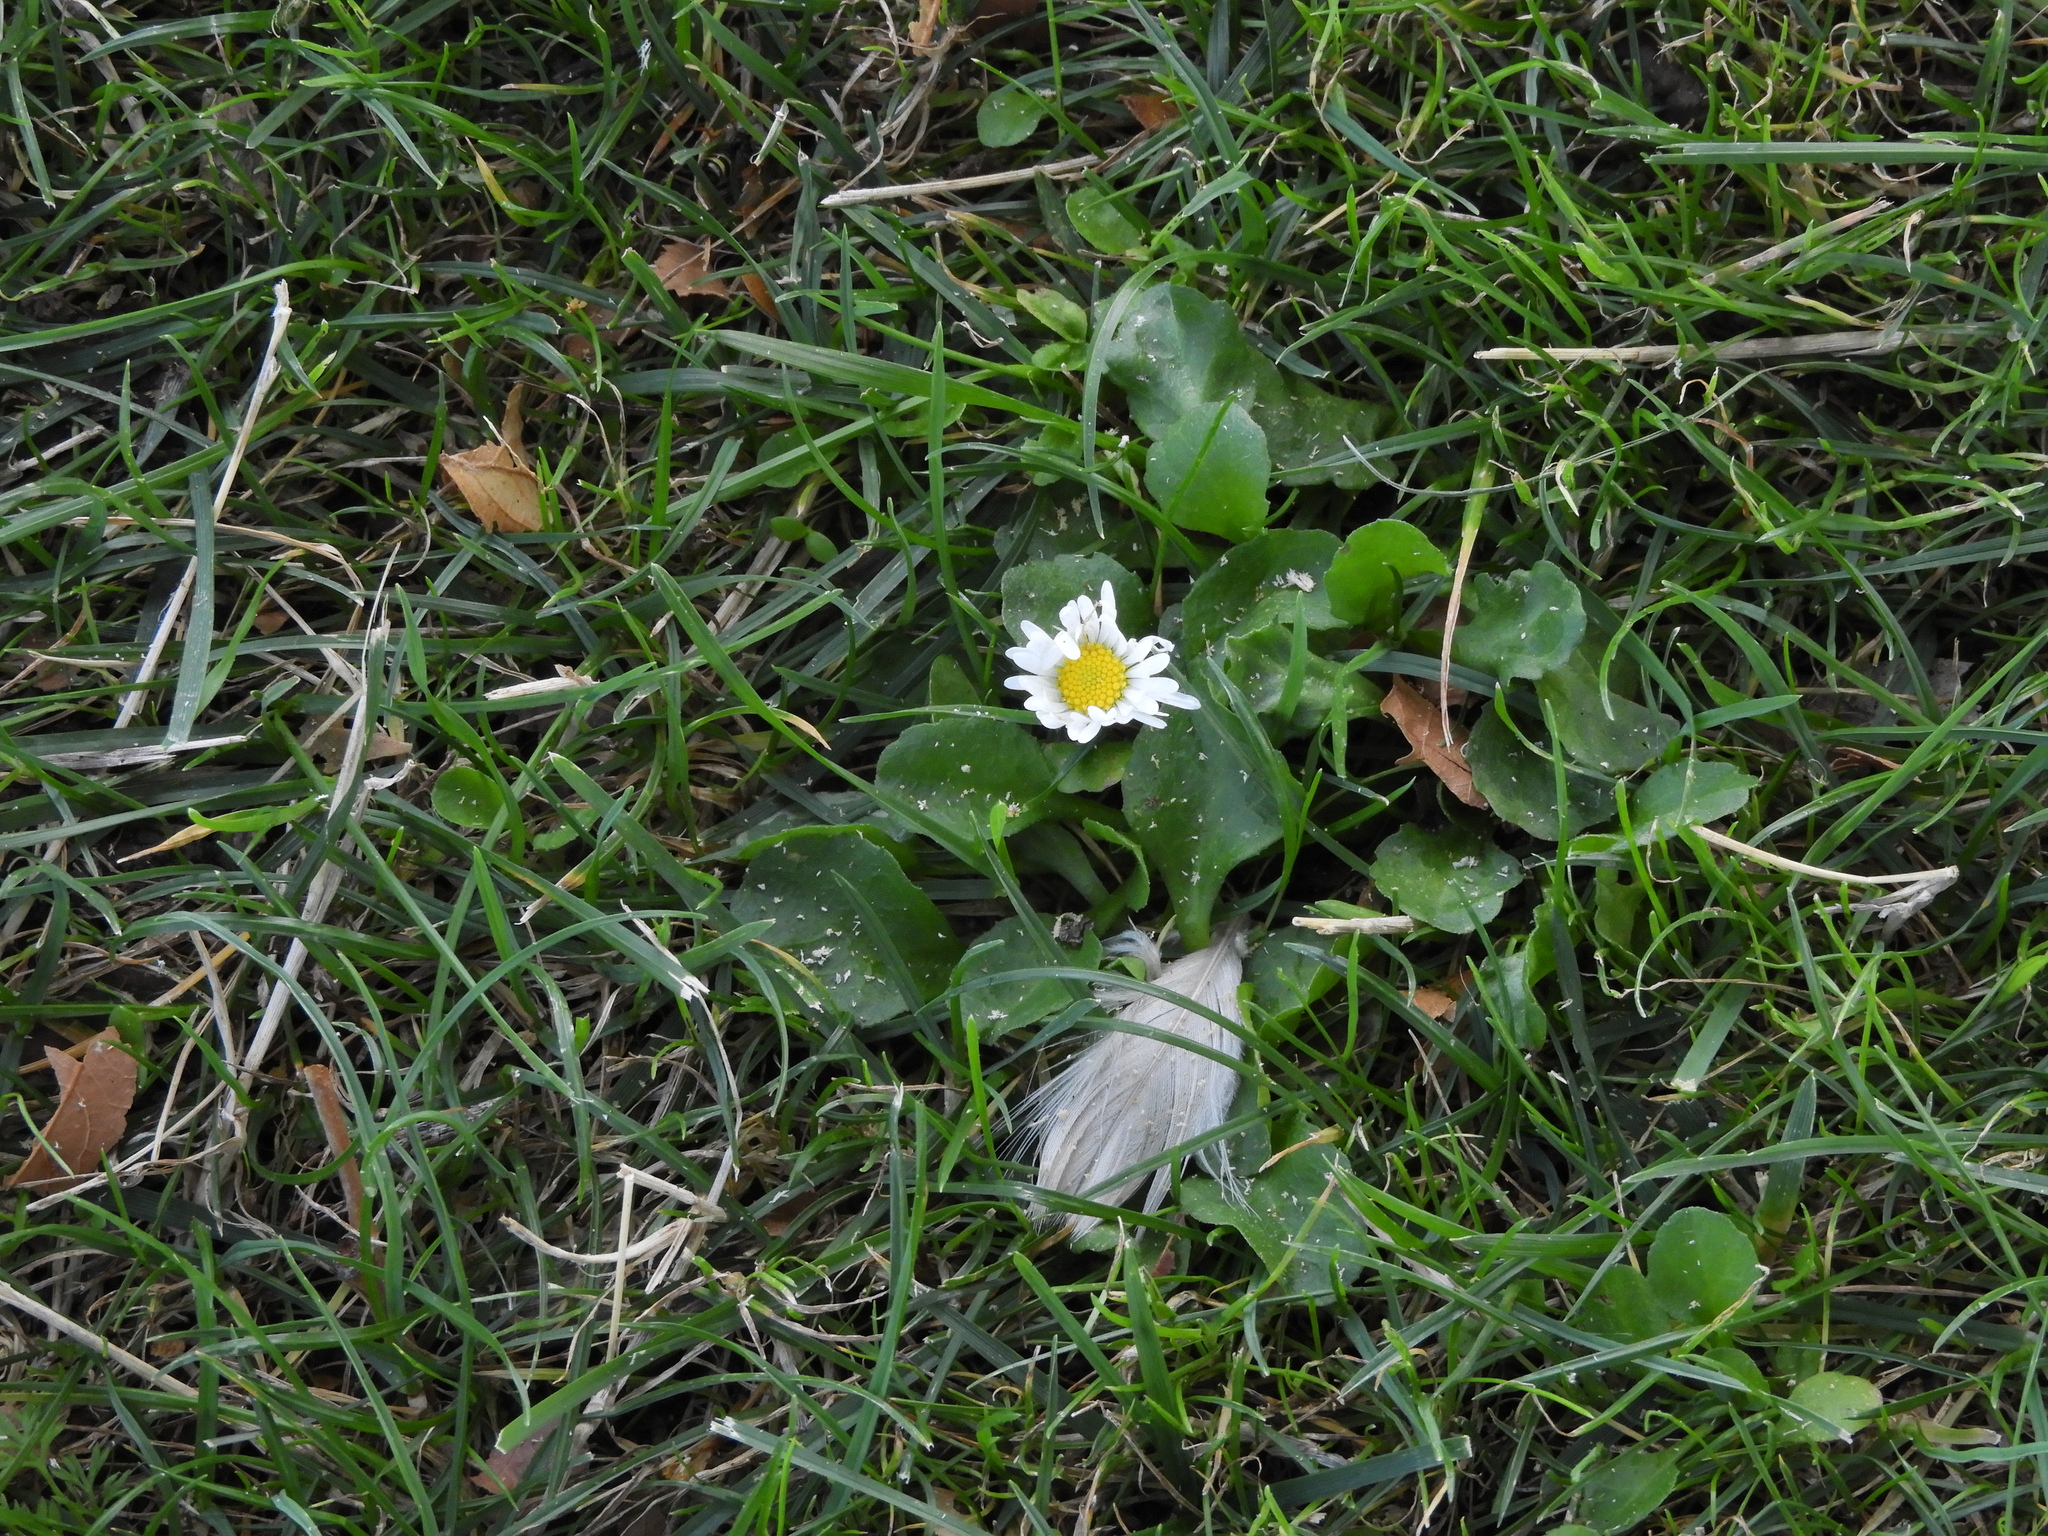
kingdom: Plantae
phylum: Tracheophyta
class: Magnoliopsida
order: Asterales
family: Asteraceae
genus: Bellis
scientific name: Bellis perennis
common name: Lawndaisy
